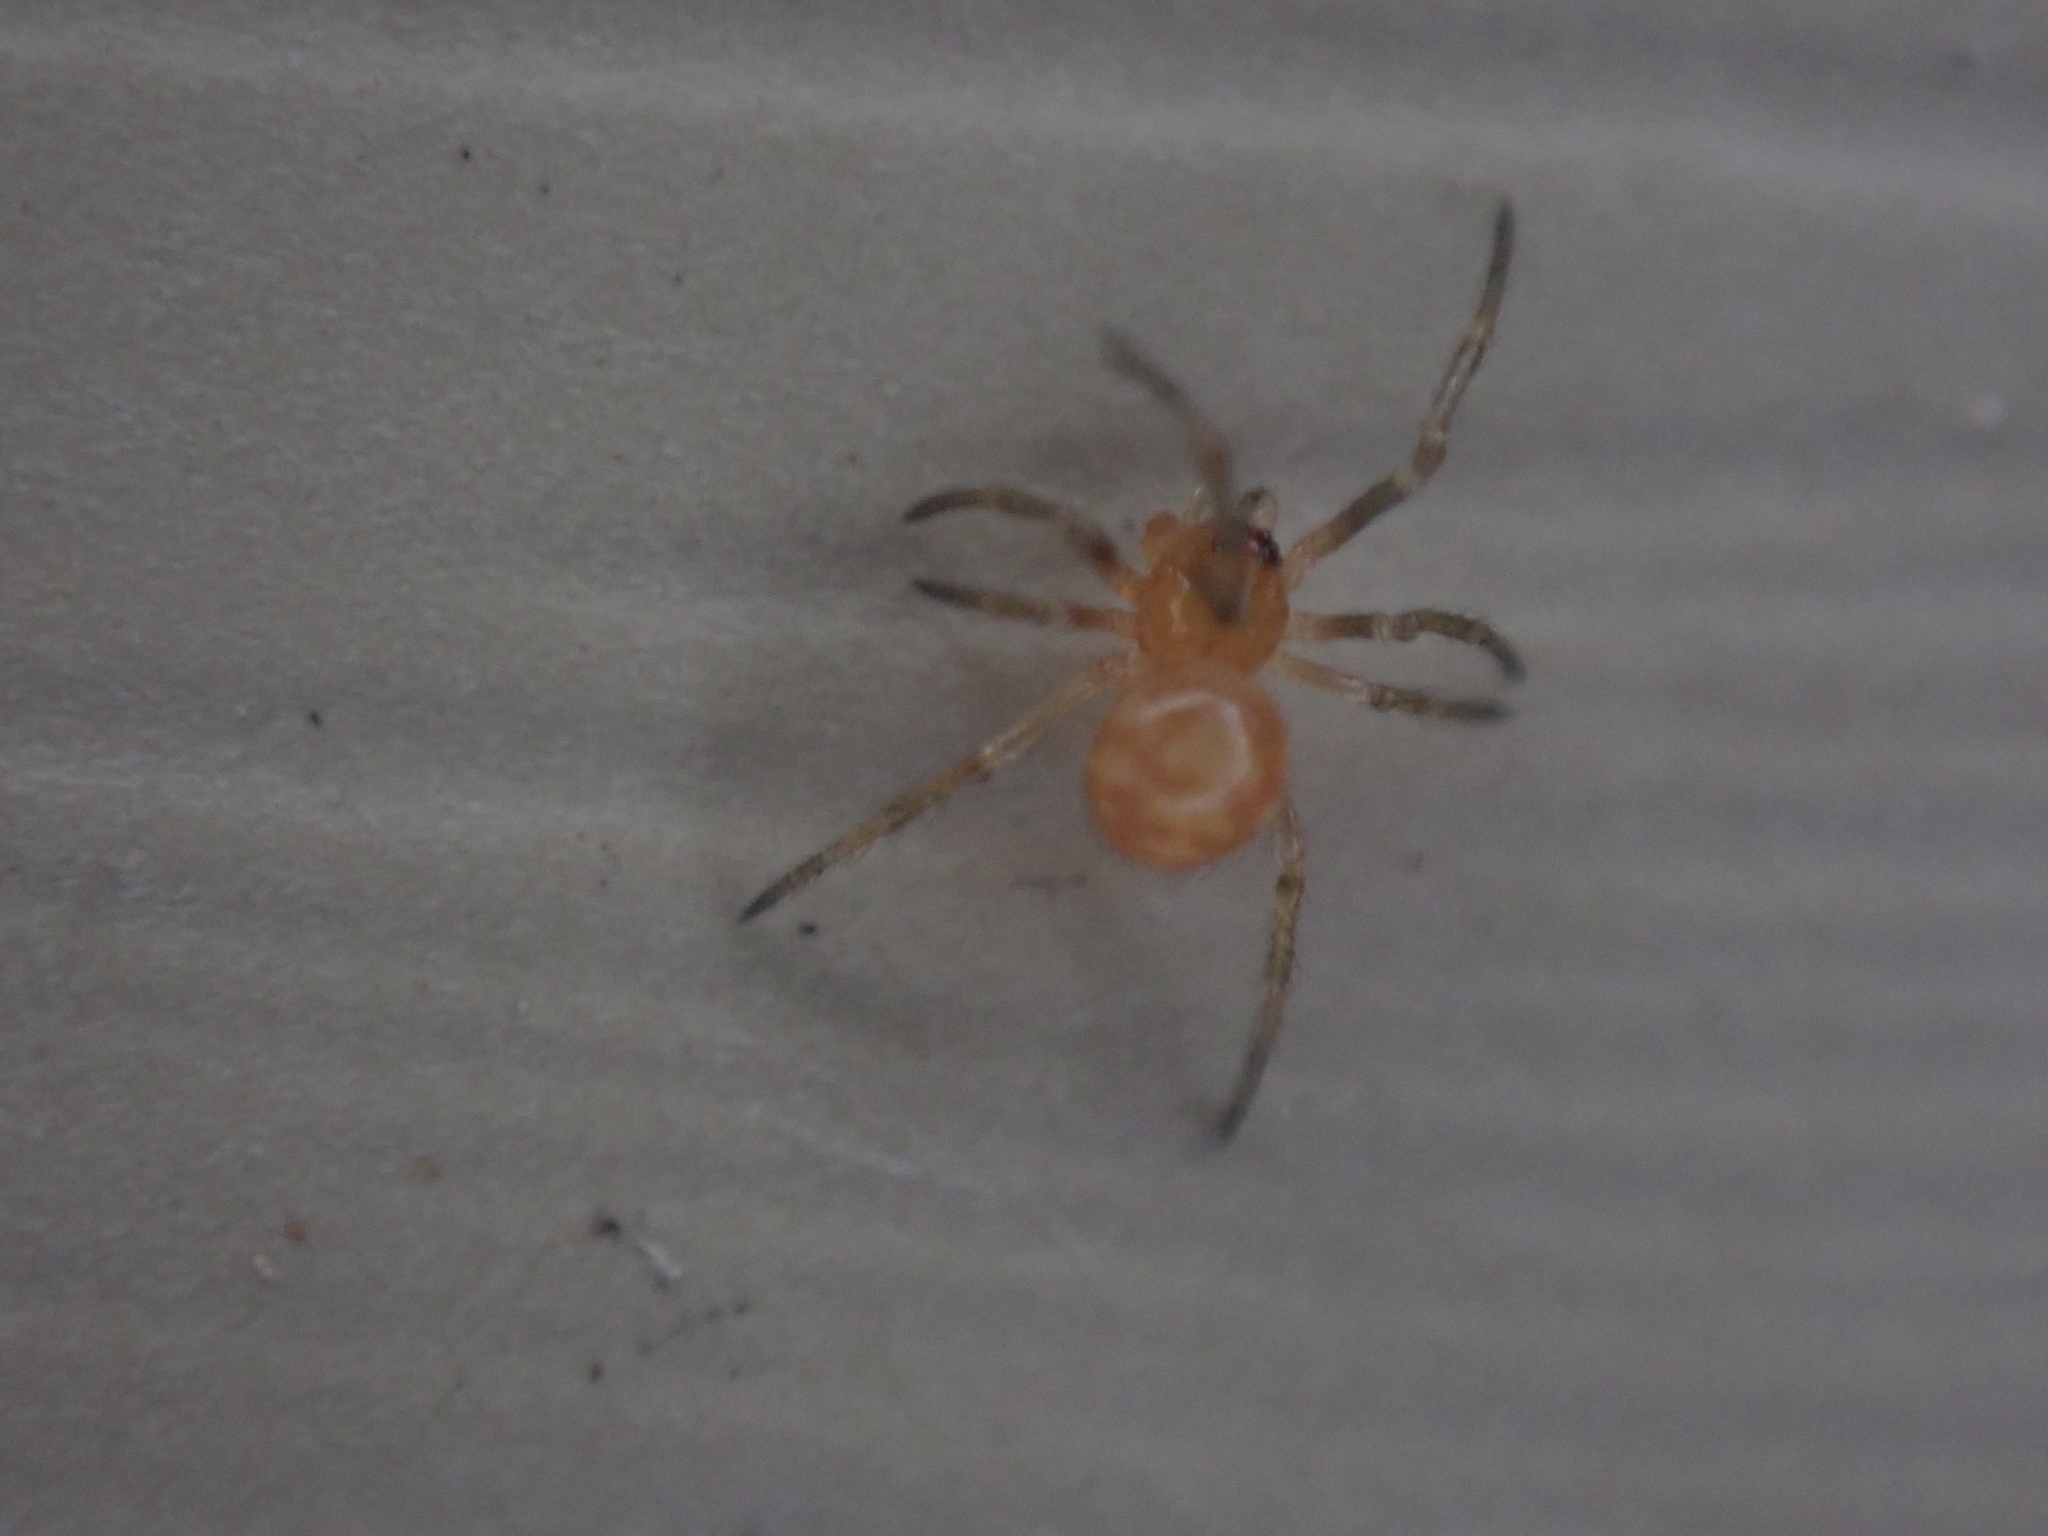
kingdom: Animalia
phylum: Arthropoda
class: Arachnida
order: Araneae
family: Theridiidae
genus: Steatoda
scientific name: Steatoda triangulosa
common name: Triangulate bud spider
